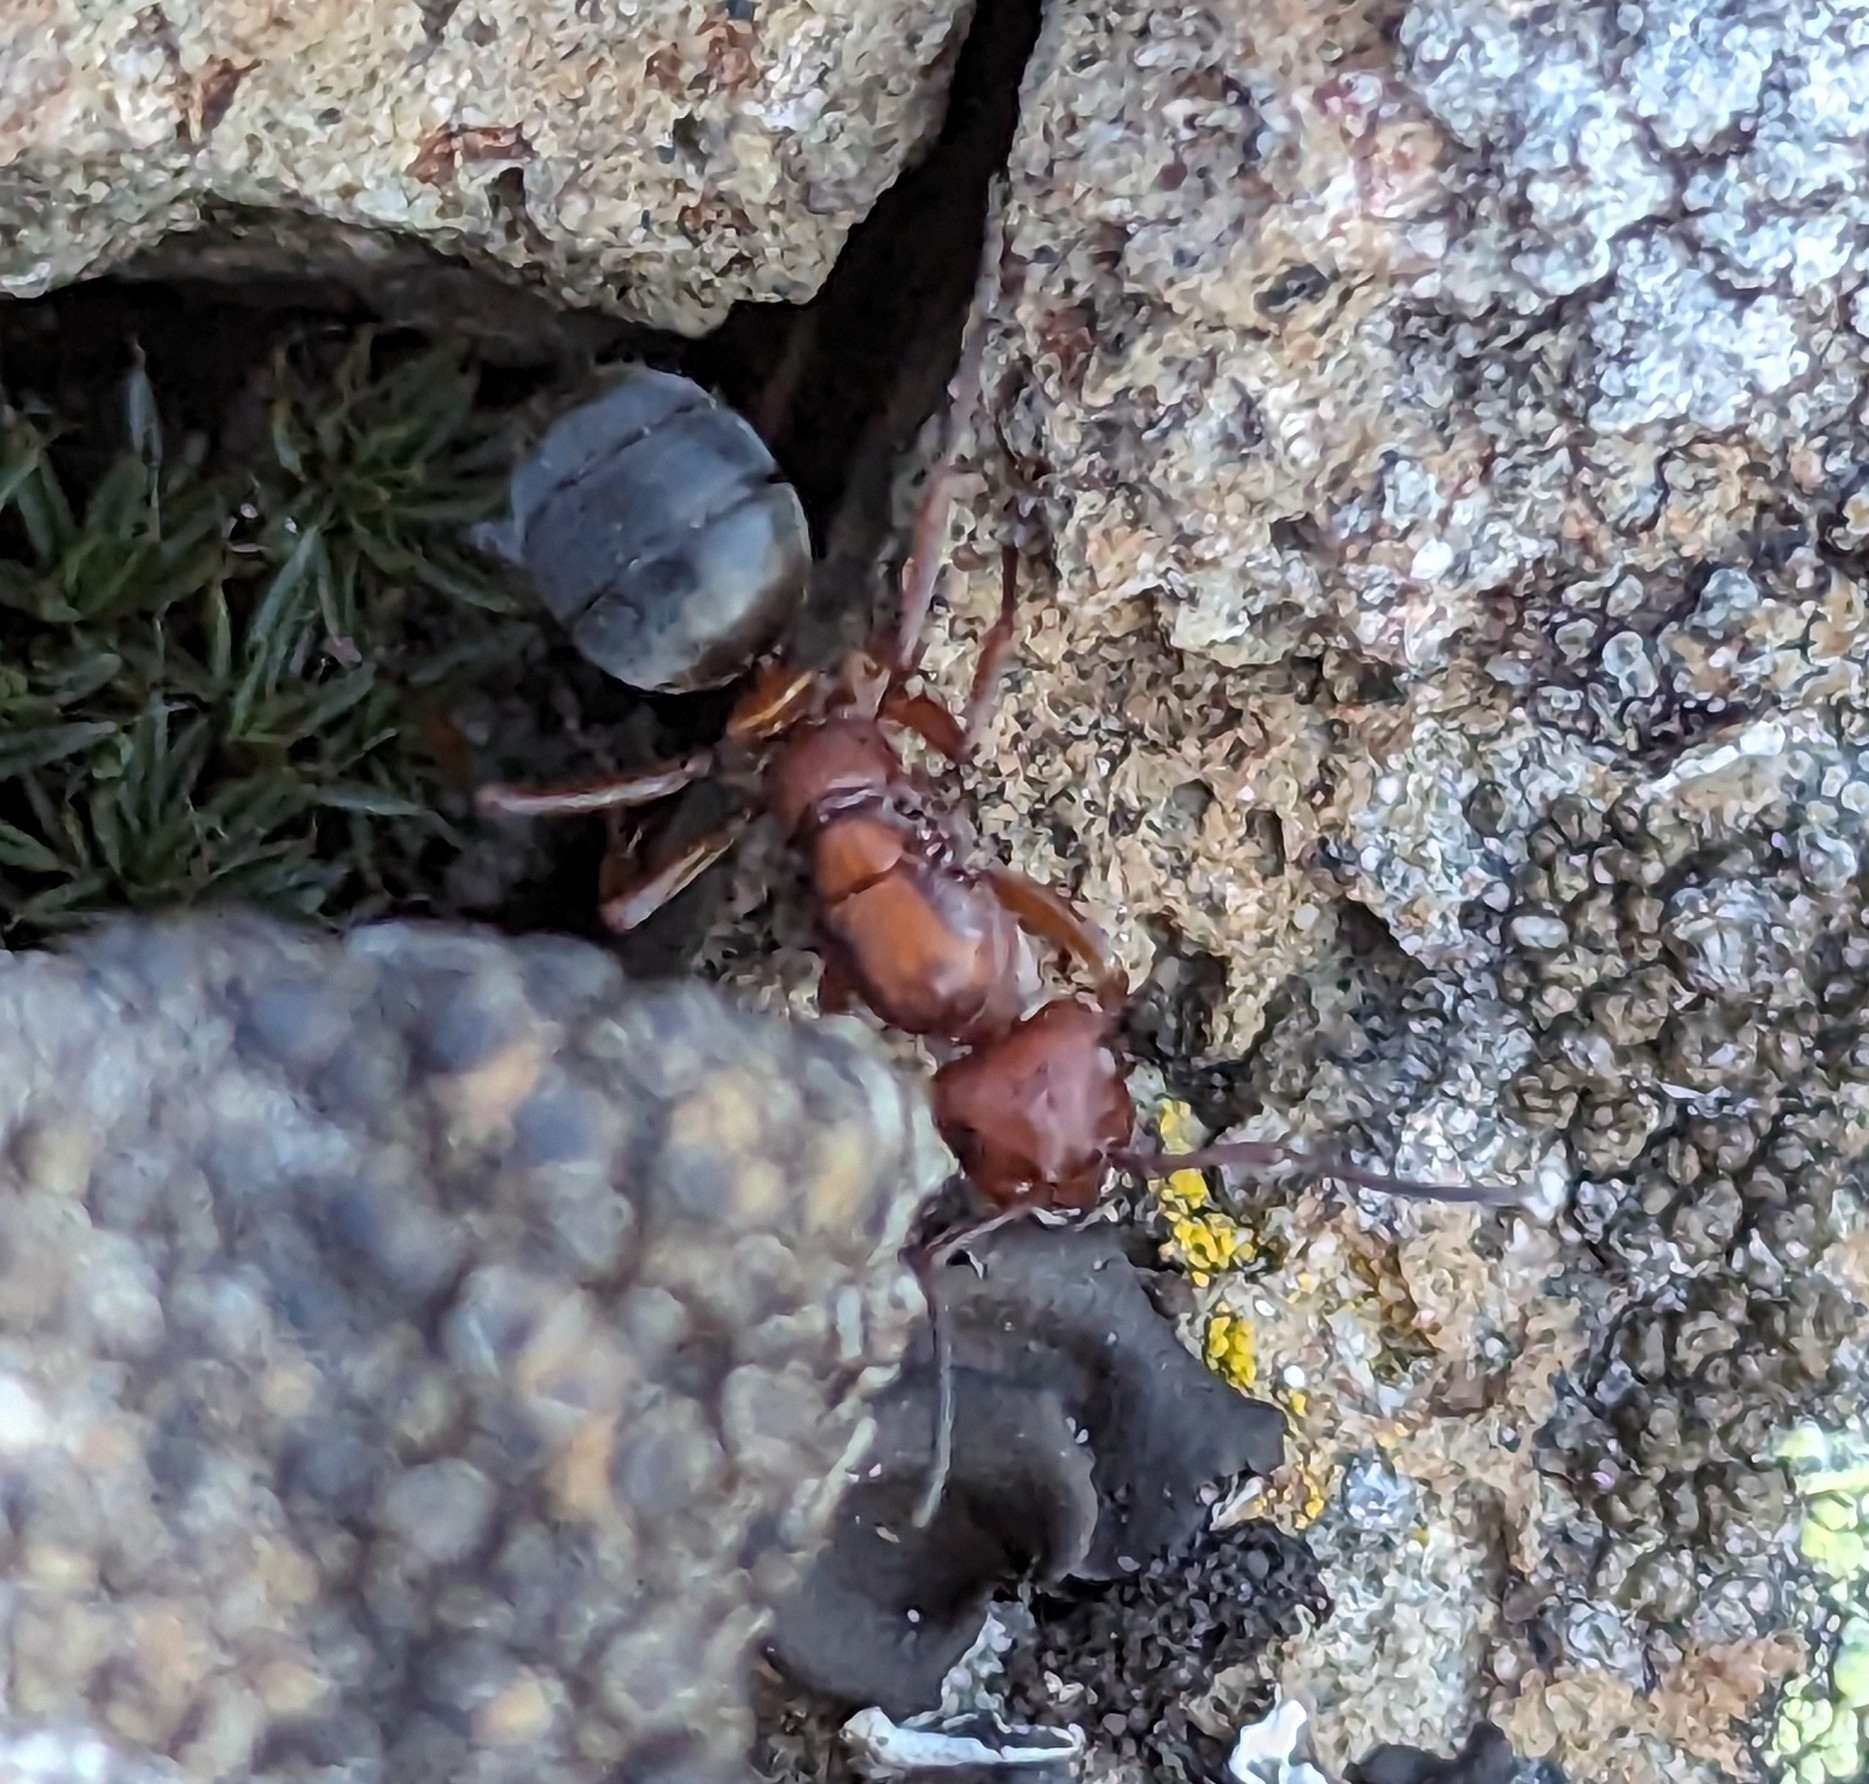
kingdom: Animalia
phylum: Arthropoda
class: Insecta
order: Hymenoptera
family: Formicidae
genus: Formica
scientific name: Formica aserva
